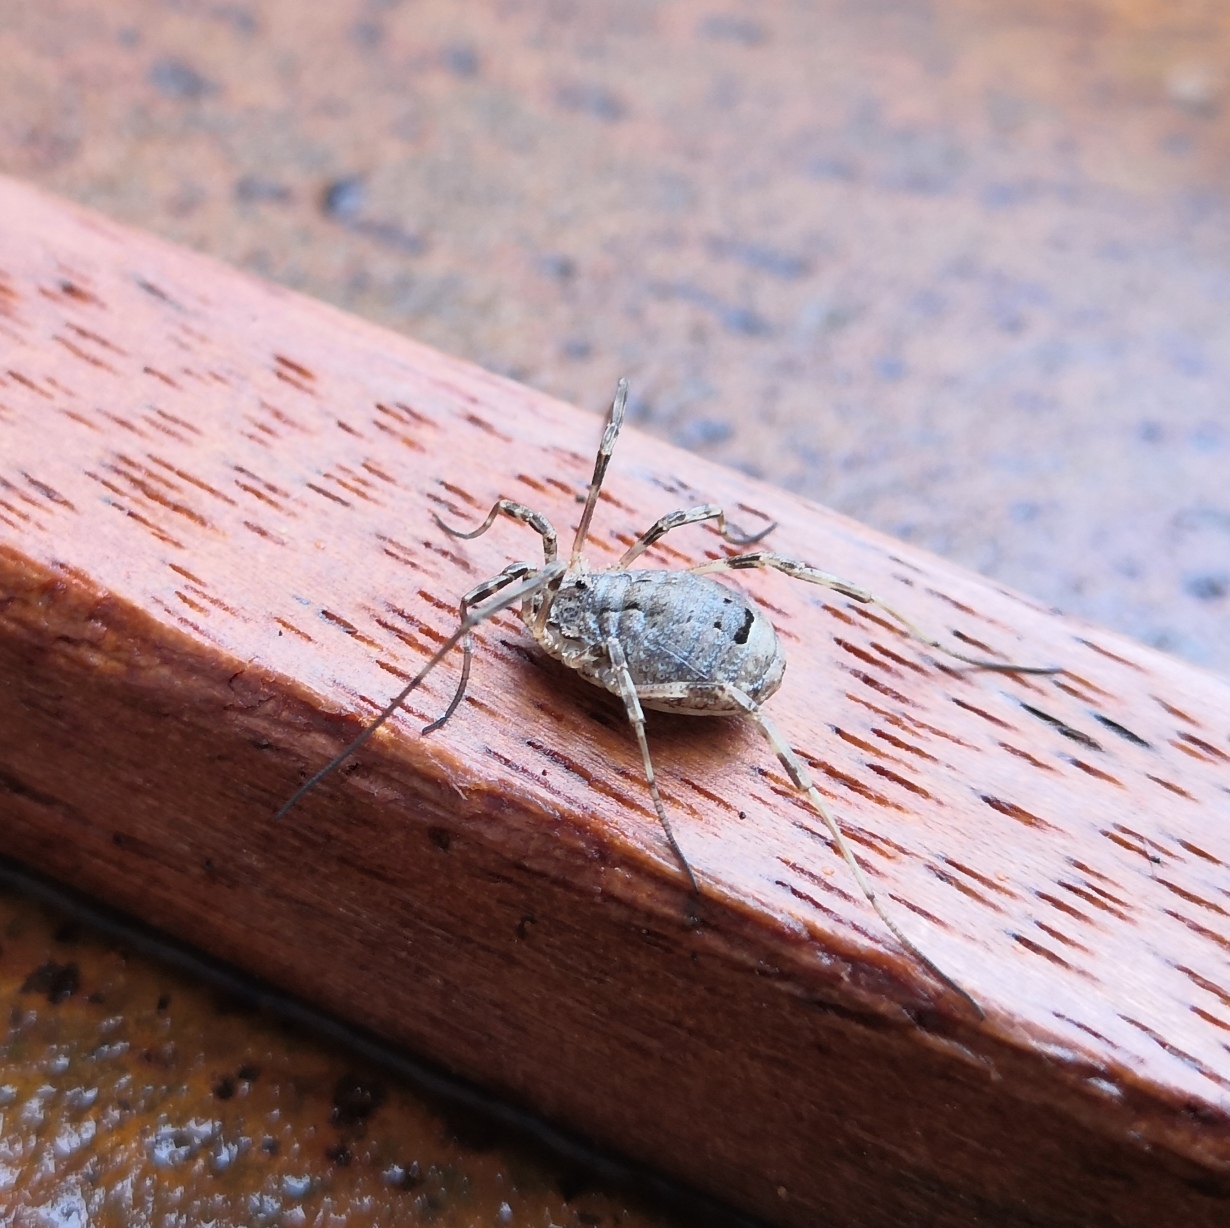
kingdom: Animalia
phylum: Arthropoda
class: Arachnida
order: Opiliones
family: Phalangiidae
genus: Odiellus
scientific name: Odiellus spinosus
